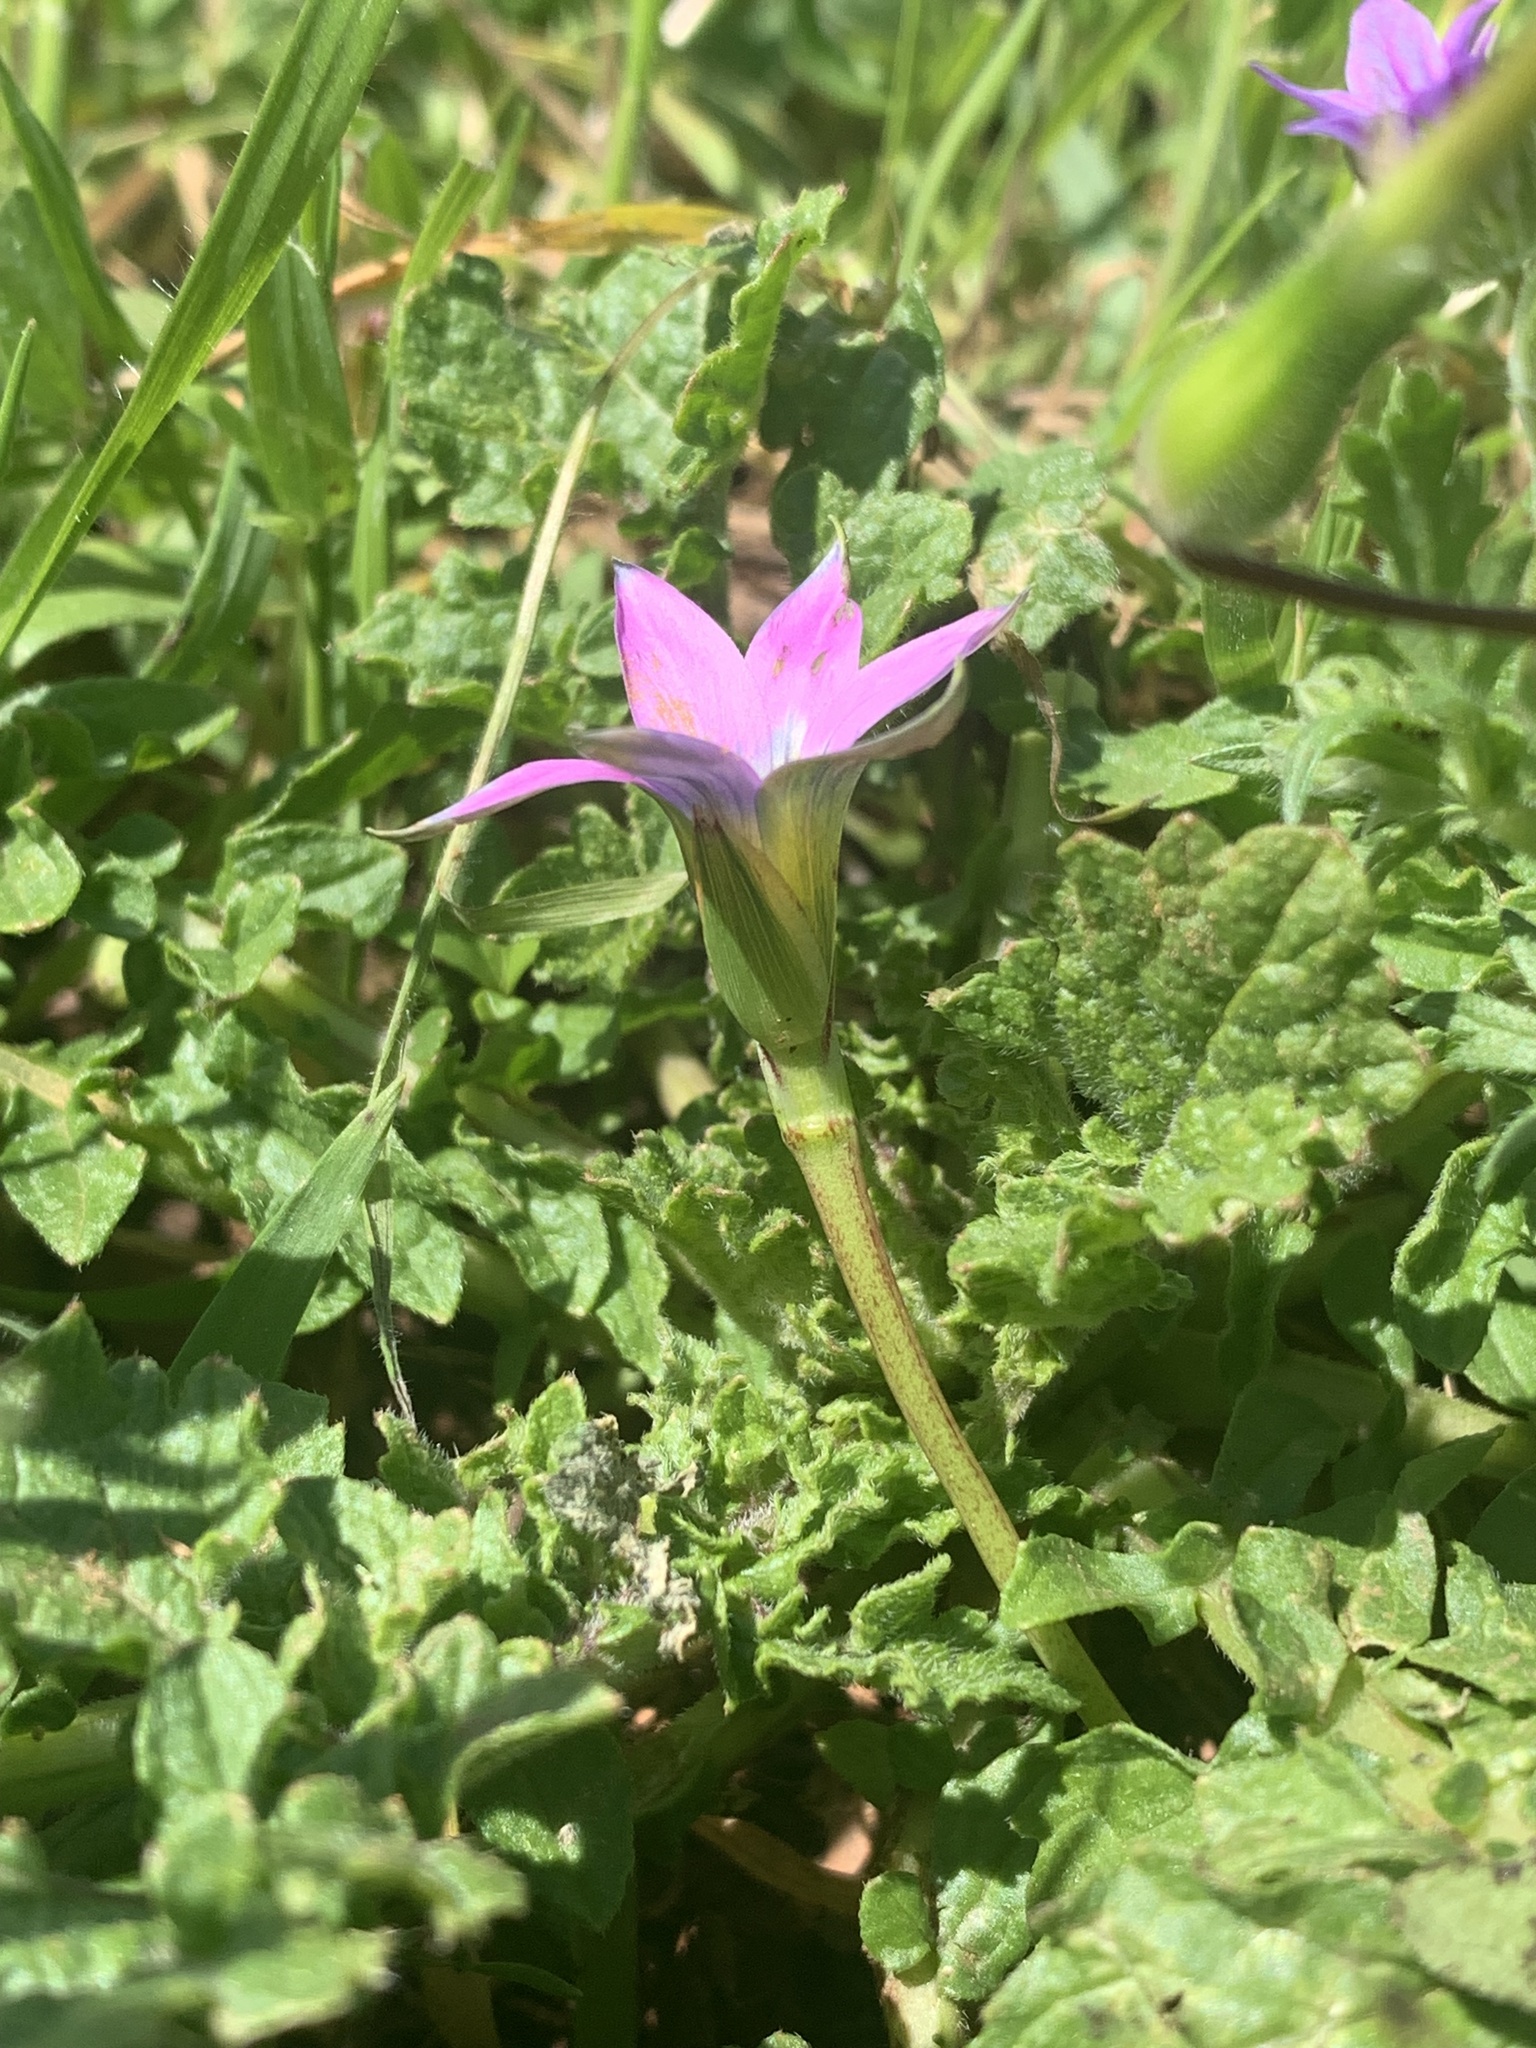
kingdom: Plantae
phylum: Tracheophyta
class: Liliopsida
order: Asparagales
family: Iridaceae
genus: Romulea
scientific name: Romulea rosea
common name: Oniongrass
